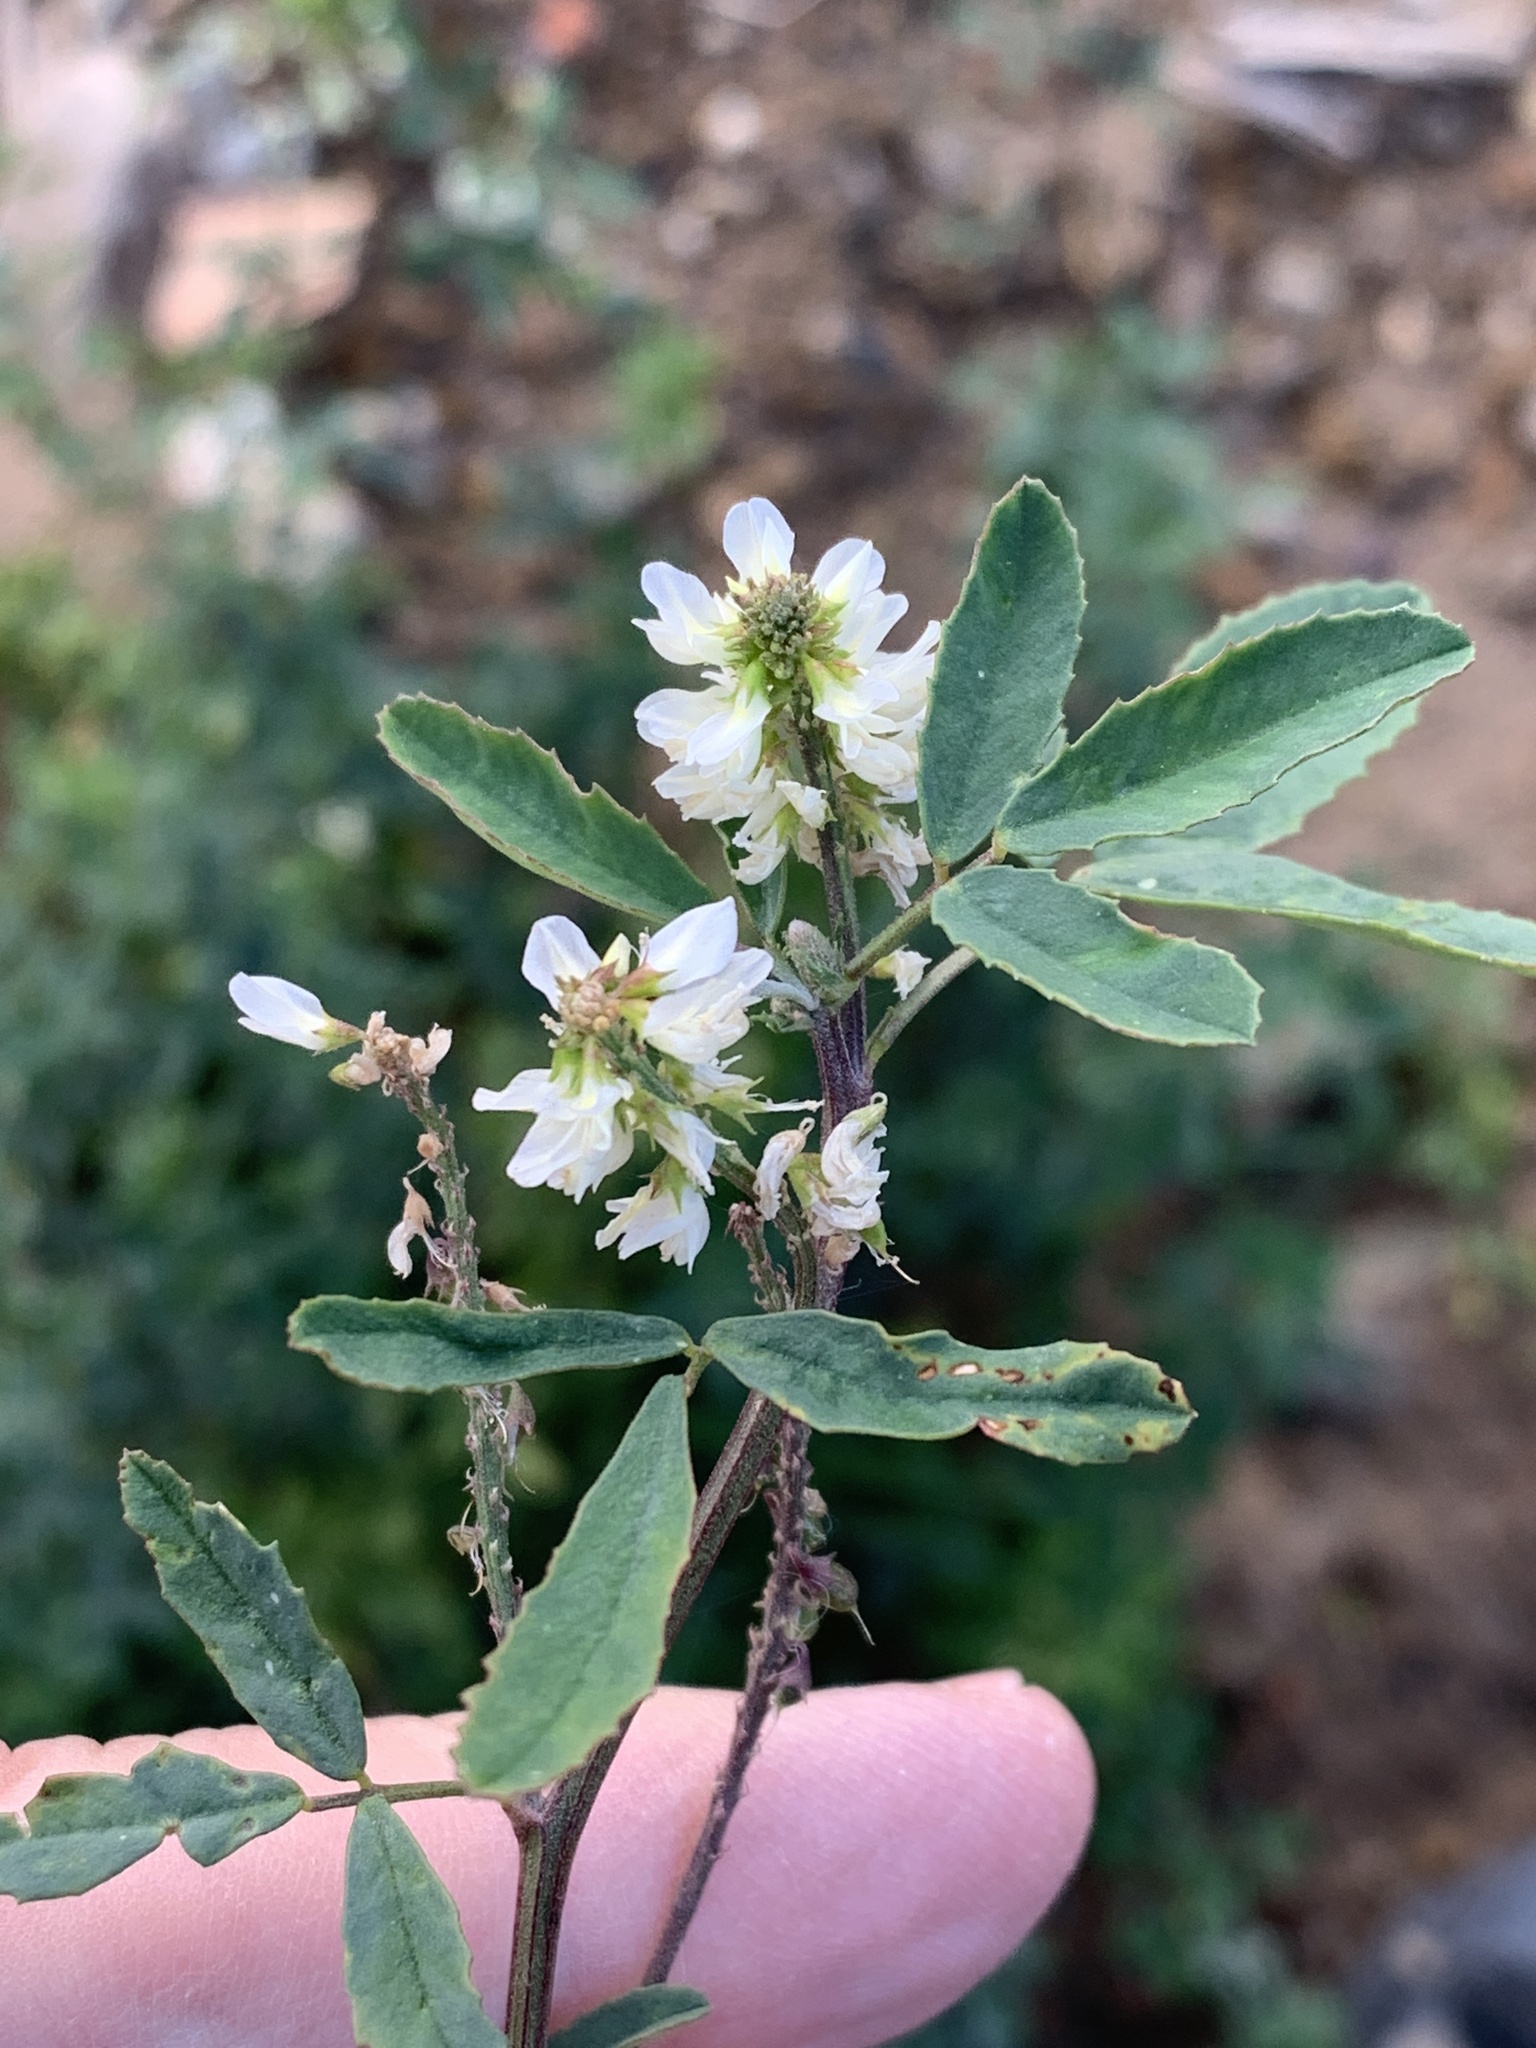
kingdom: Plantae
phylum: Tracheophyta
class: Magnoliopsida
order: Fabales
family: Fabaceae
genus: Melilotus
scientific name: Melilotus albus
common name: White melilot
